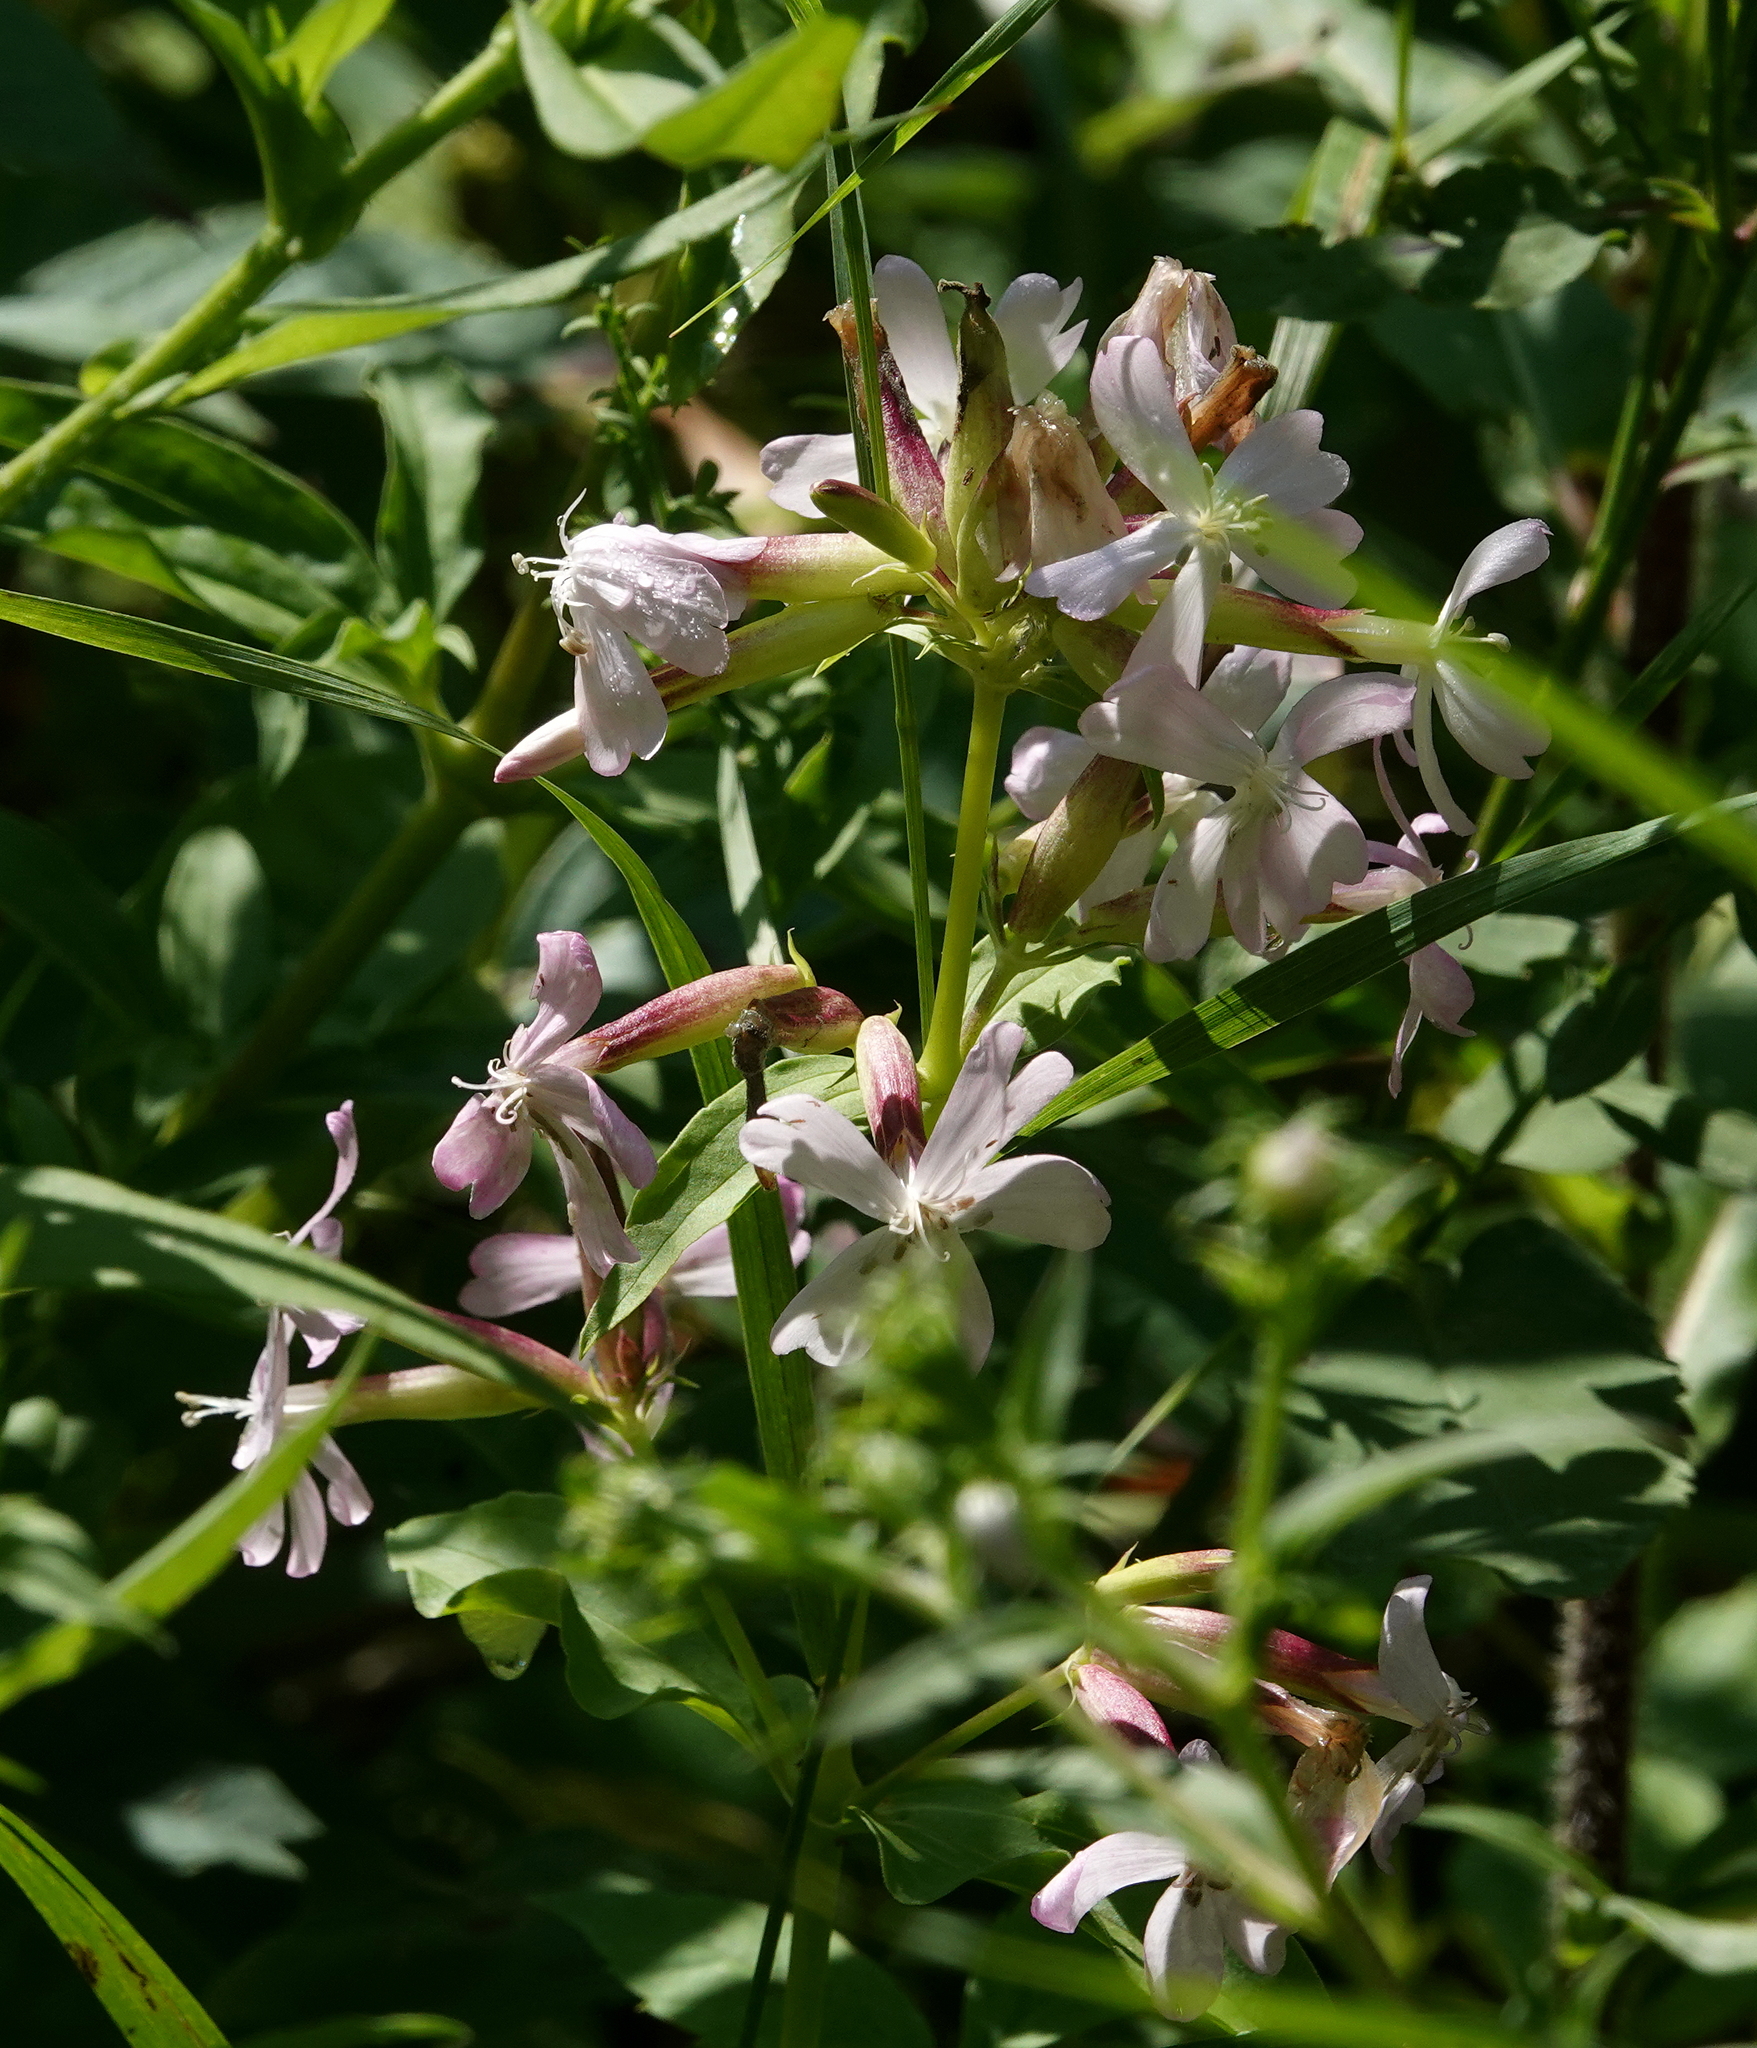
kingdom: Plantae
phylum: Tracheophyta
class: Magnoliopsida
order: Caryophyllales
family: Caryophyllaceae
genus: Saponaria
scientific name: Saponaria officinalis
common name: Soapwort
